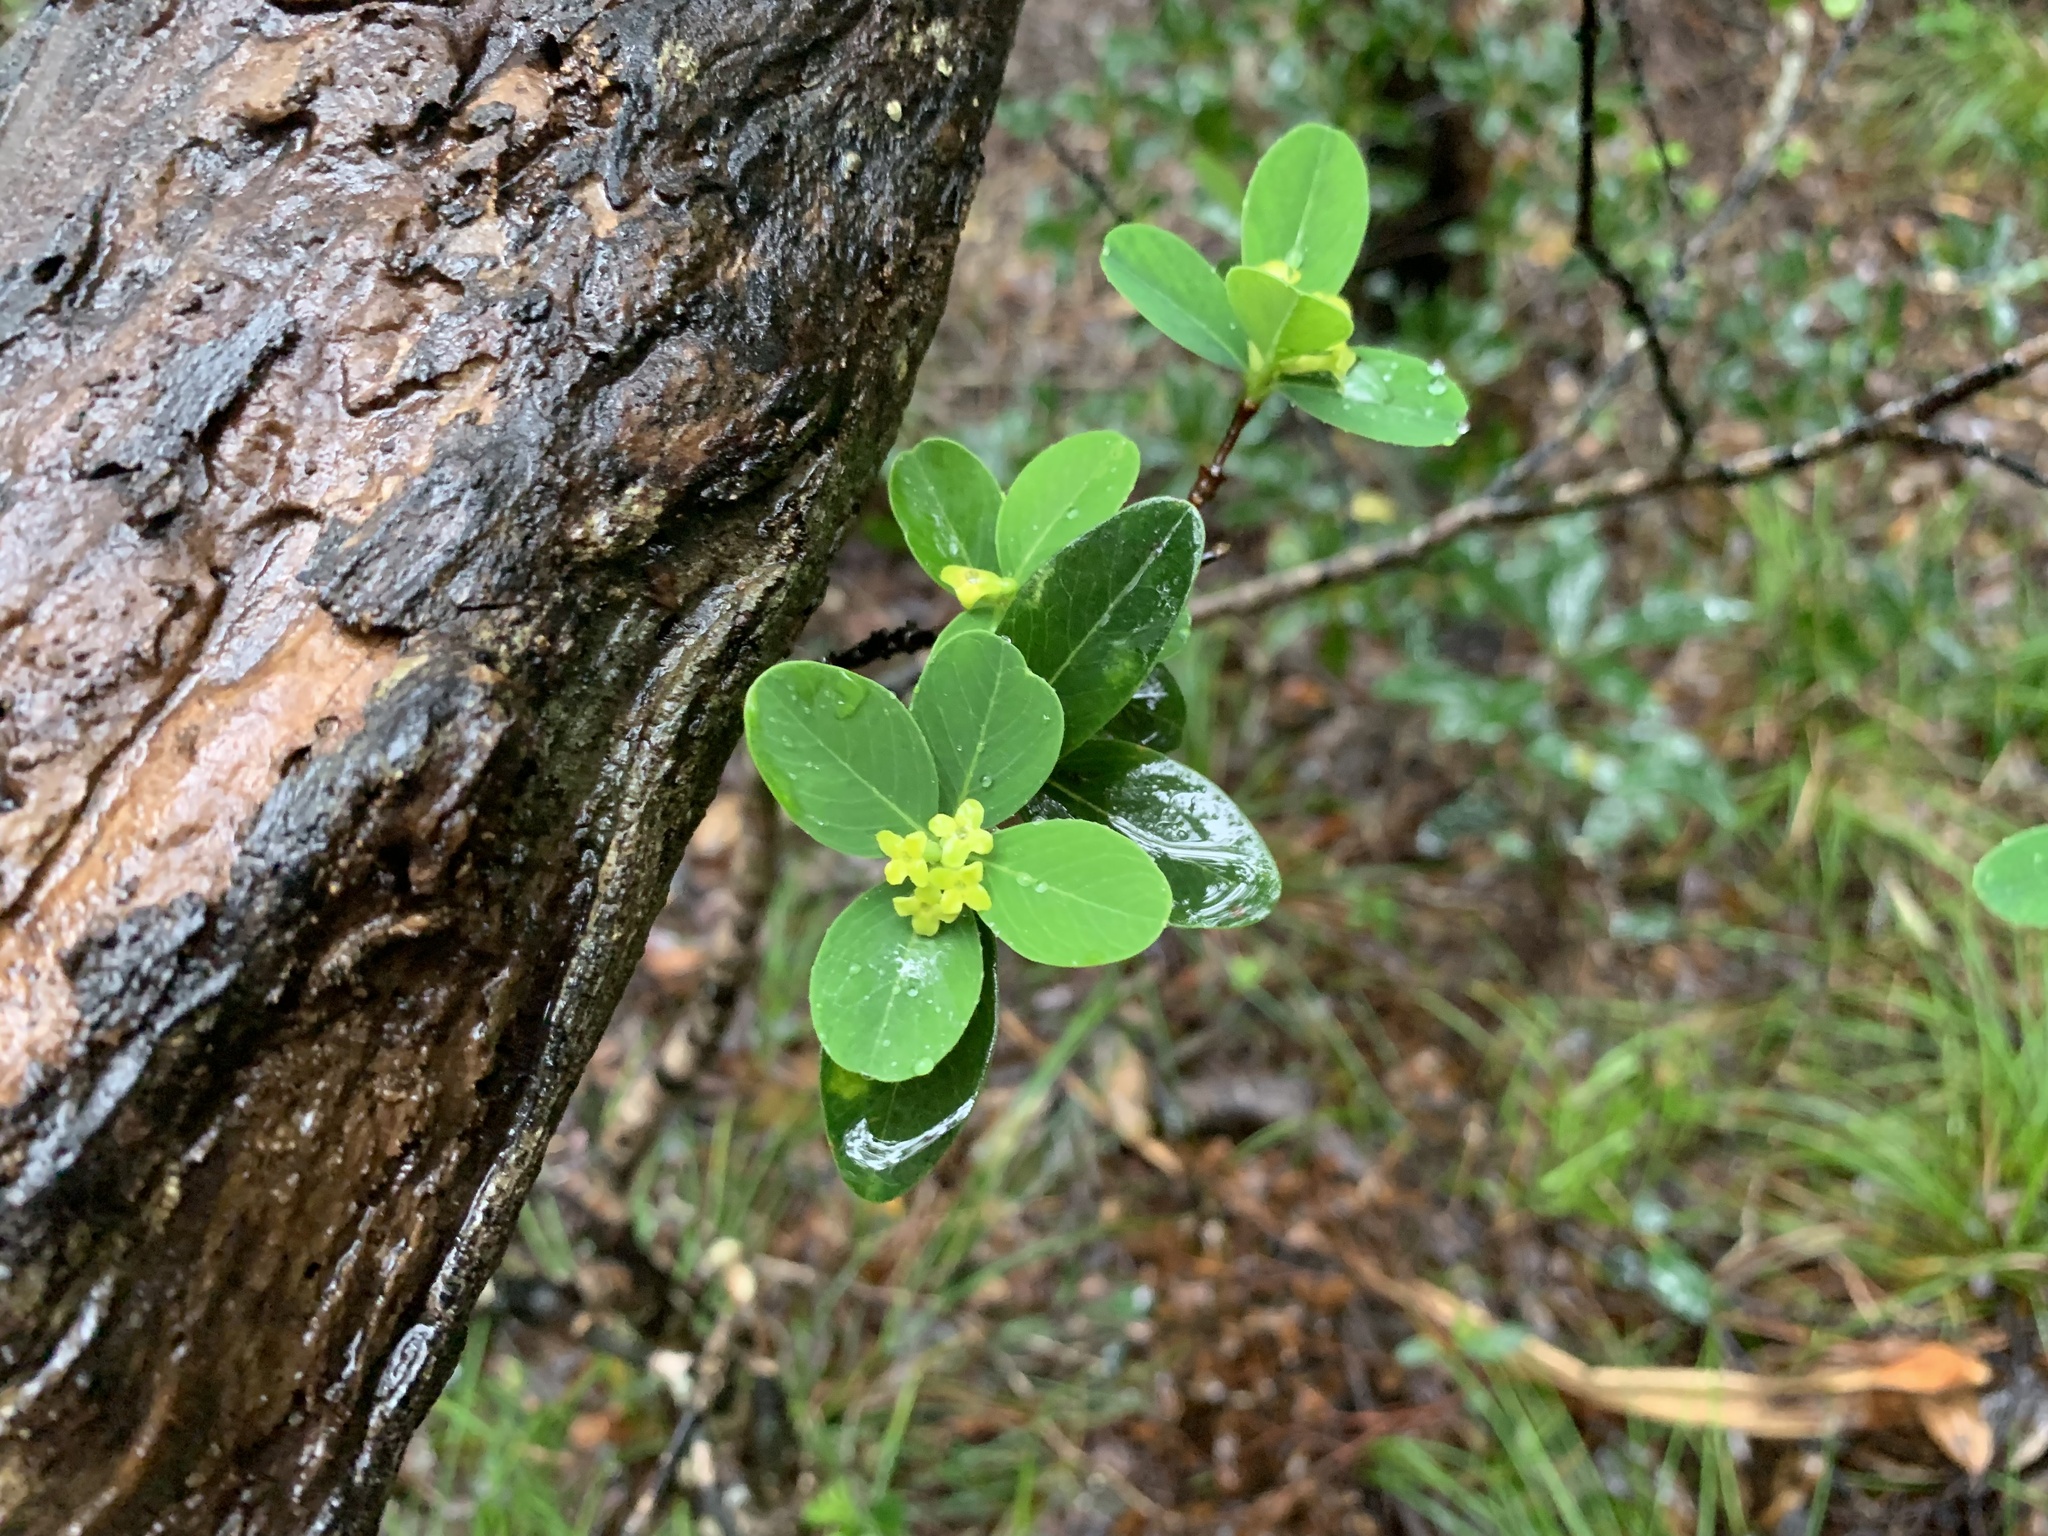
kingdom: Plantae
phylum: Tracheophyta
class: Magnoliopsida
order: Malvales
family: Thymelaeaceae
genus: Wikstroemia
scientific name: Wikstroemia pseudoretusa
